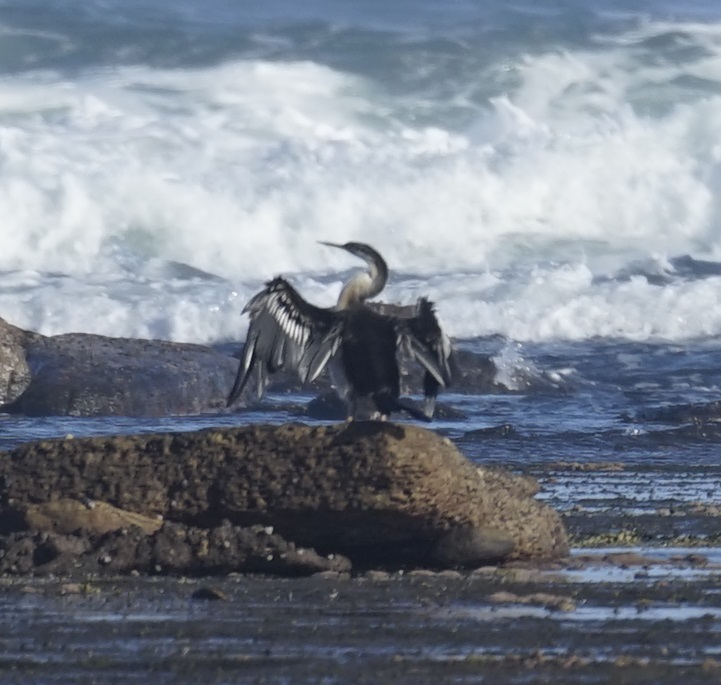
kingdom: Animalia
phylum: Chordata
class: Aves
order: Suliformes
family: Anhingidae
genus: Anhinga
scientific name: Anhinga novaehollandiae
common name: Australasian darter
